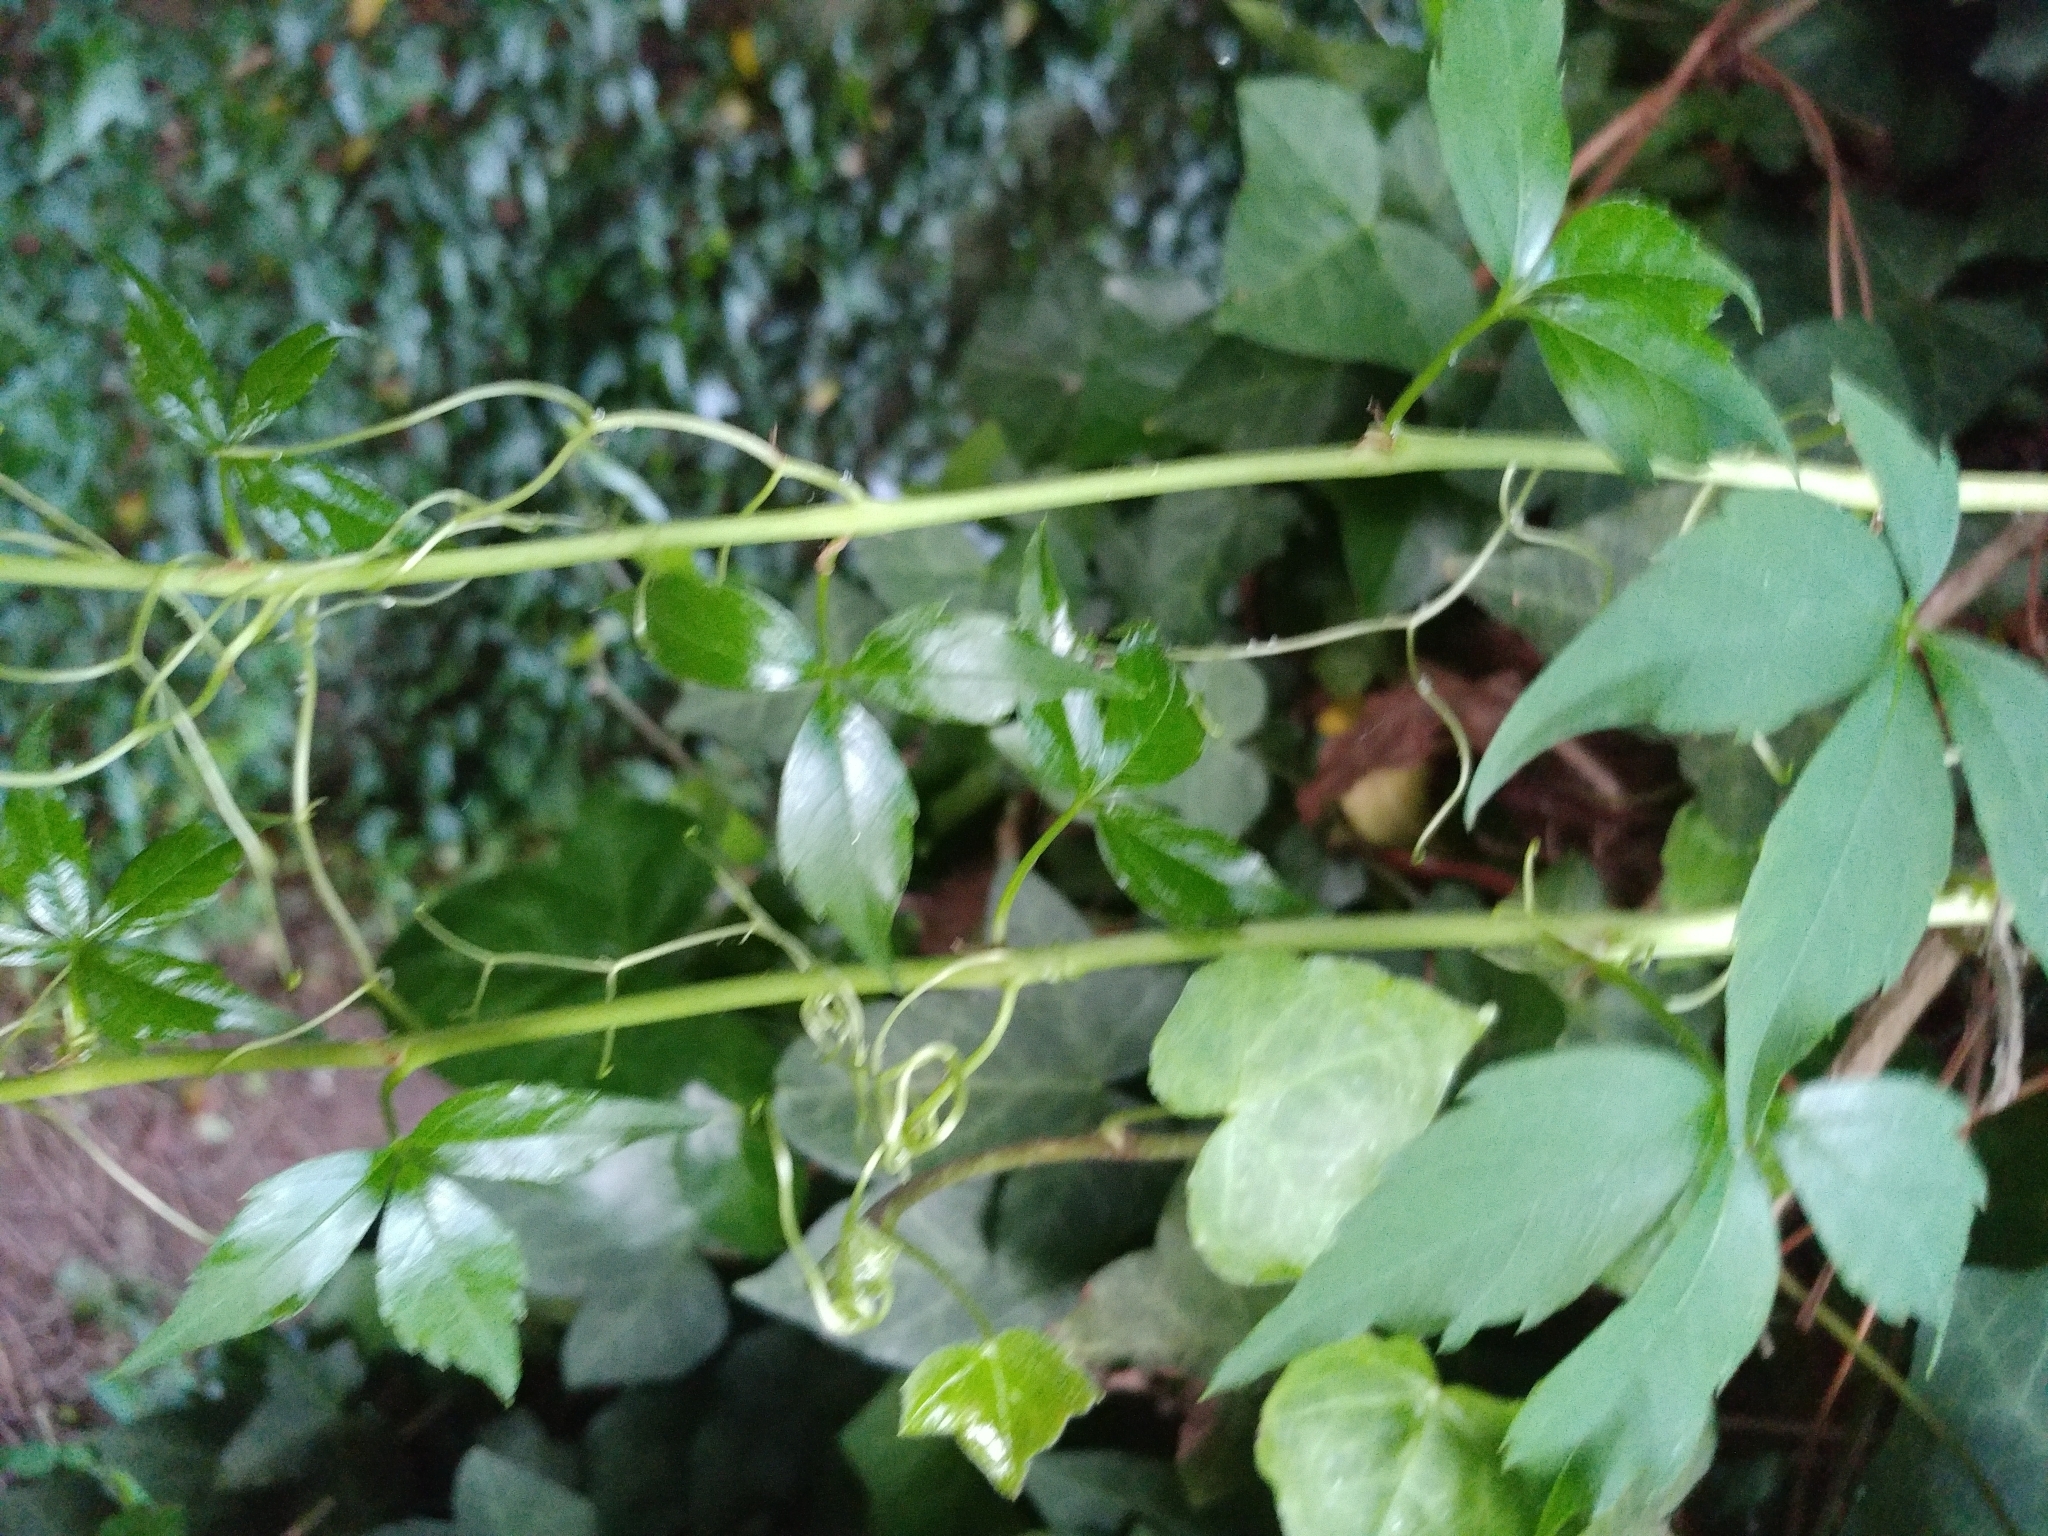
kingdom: Plantae
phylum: Tracheophyta
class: Magnoliopsida
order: Vitales
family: Vitaceae
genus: Parthenocissus
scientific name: Parthenocissus quinquefolia
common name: Virginia-creeper
